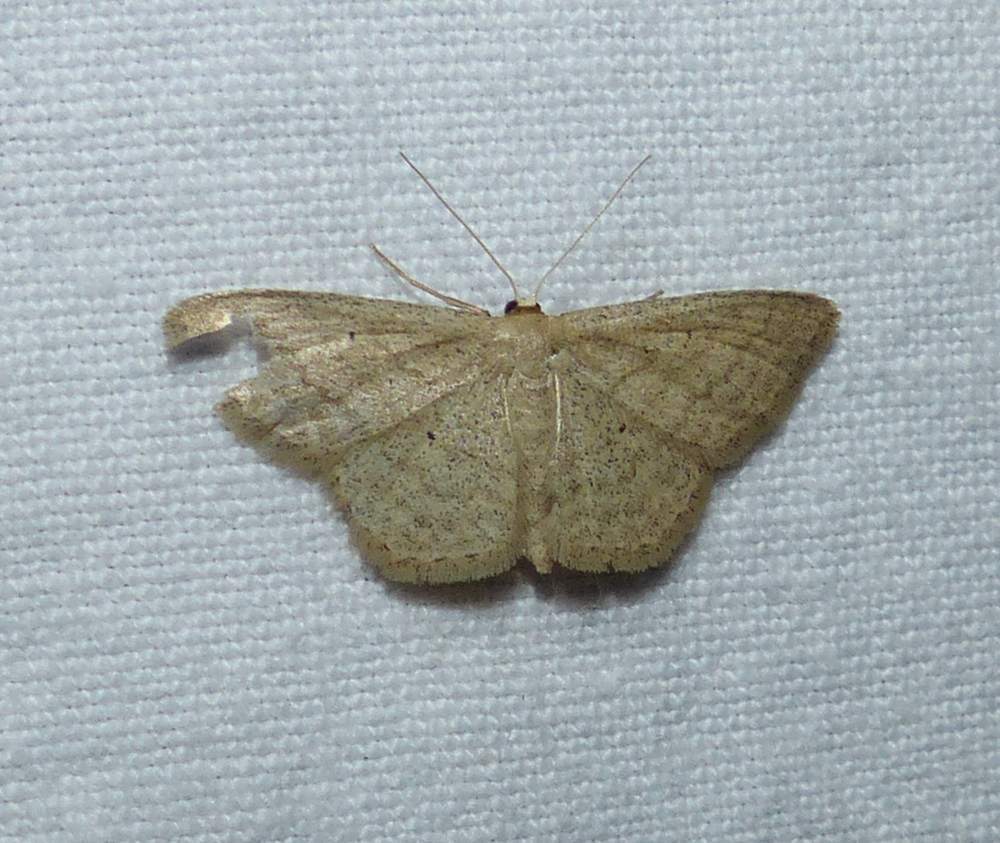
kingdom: Animalia
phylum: Arthropoda
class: Insecta
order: Lepidoptera
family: Geometridae
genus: Scopula
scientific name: Scopula inductata
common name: Soft-lined wave
